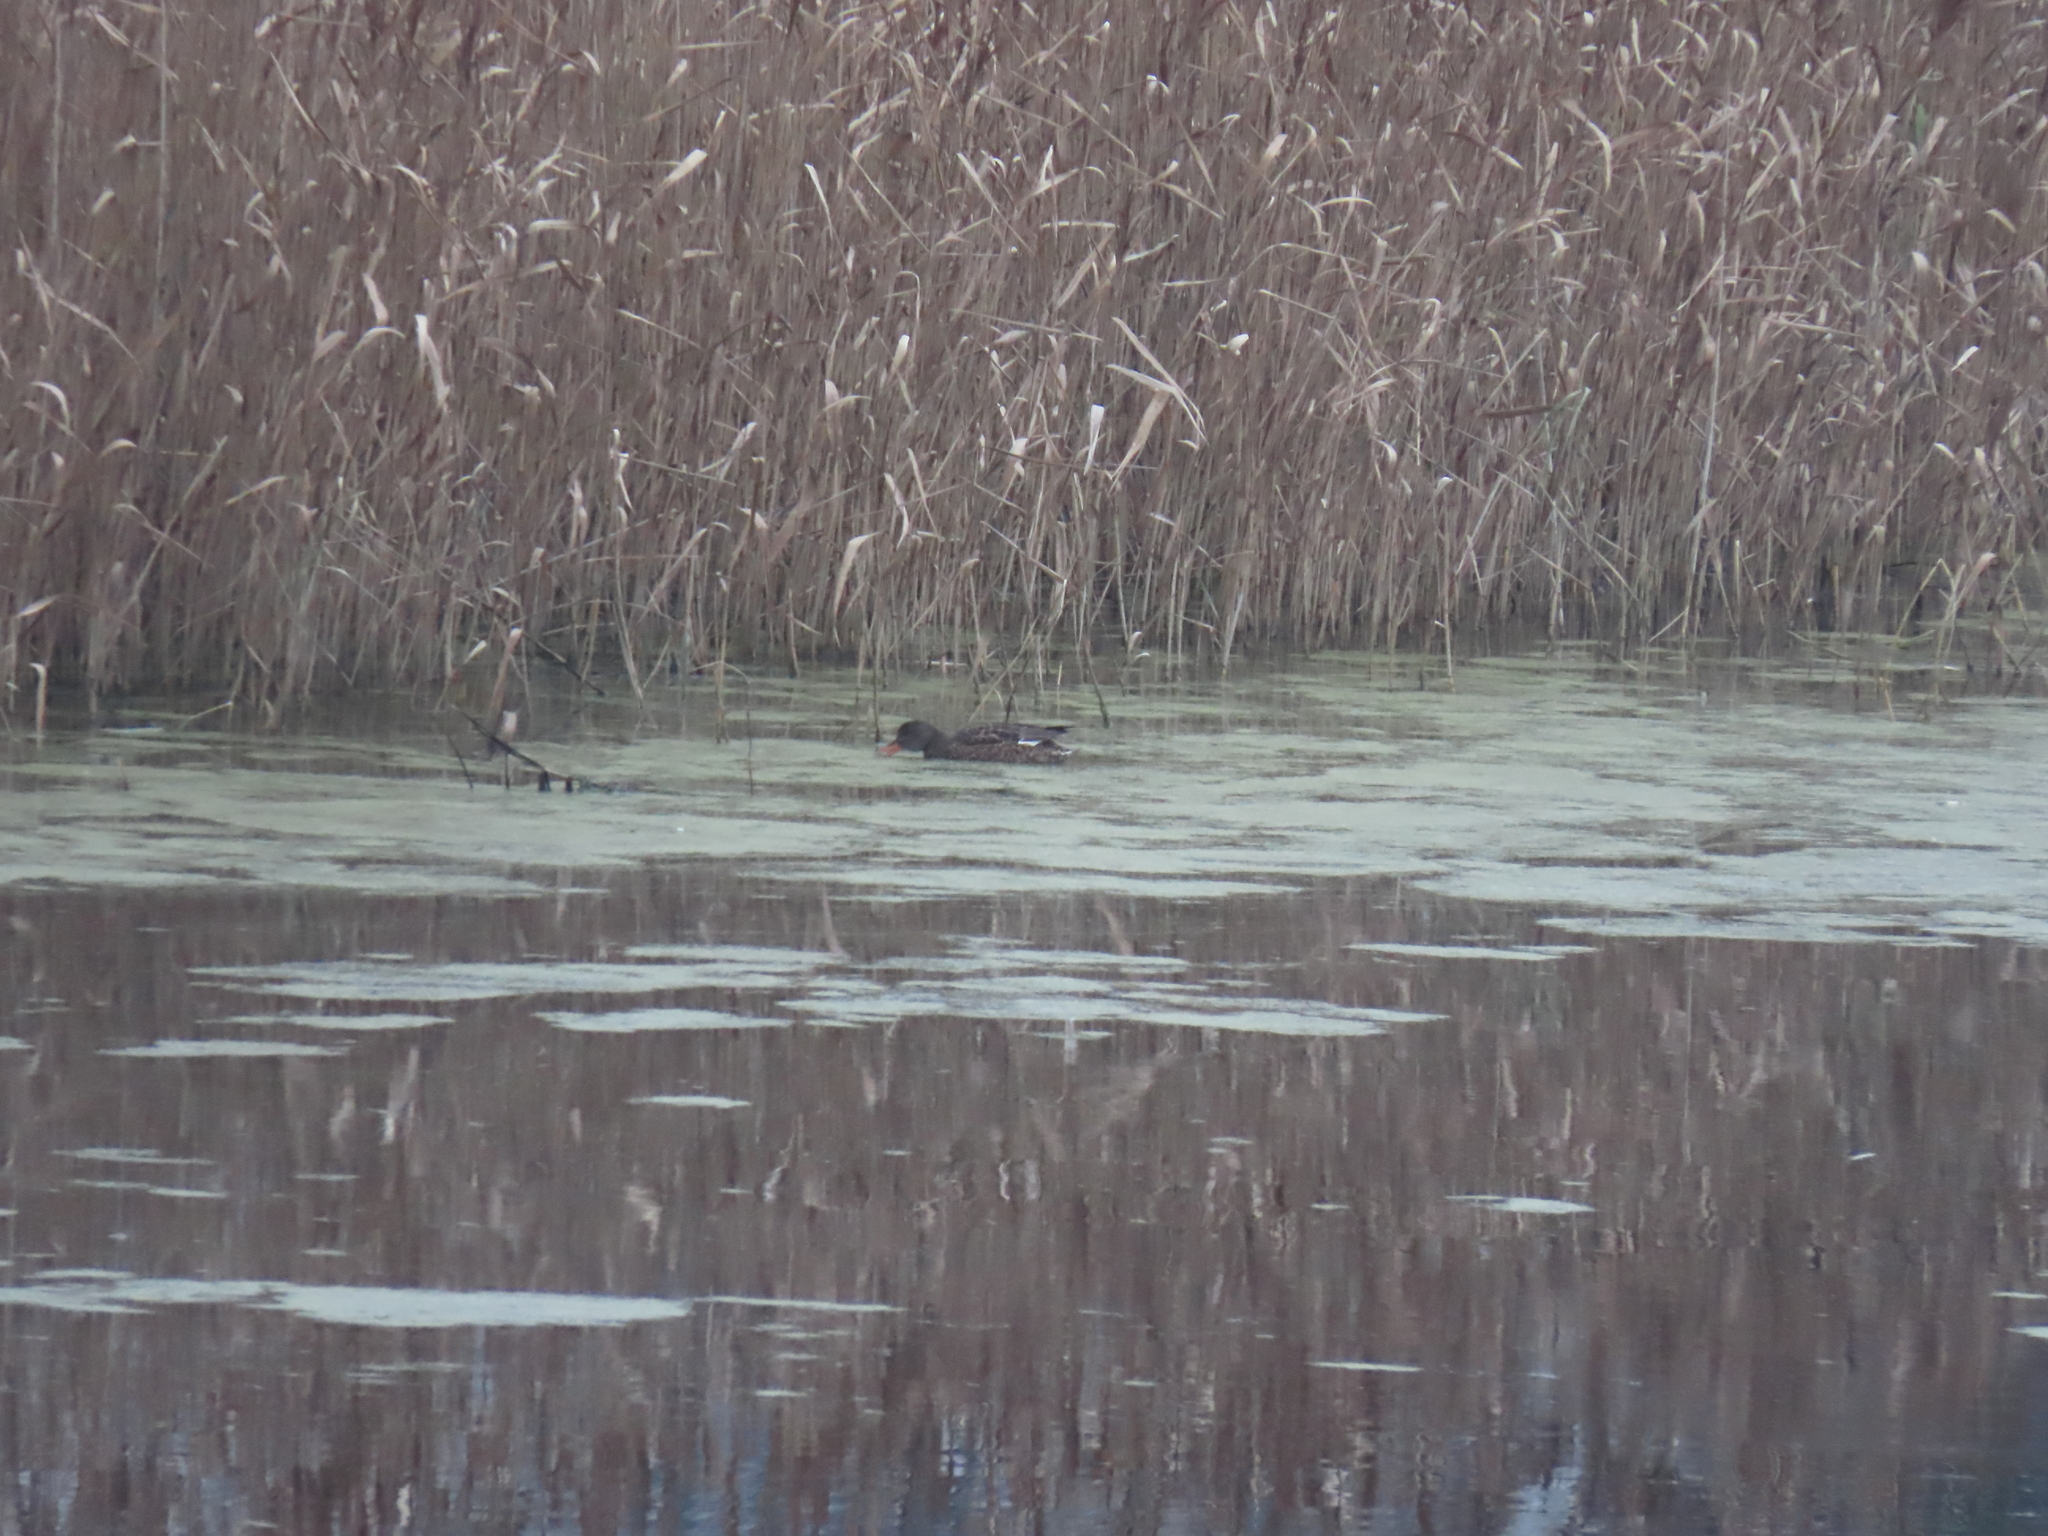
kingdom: Animalia
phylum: Chordata
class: Aves
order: Anseriformes
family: Anatidae
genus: Mareca
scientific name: Mareca strepera
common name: Gadwall
